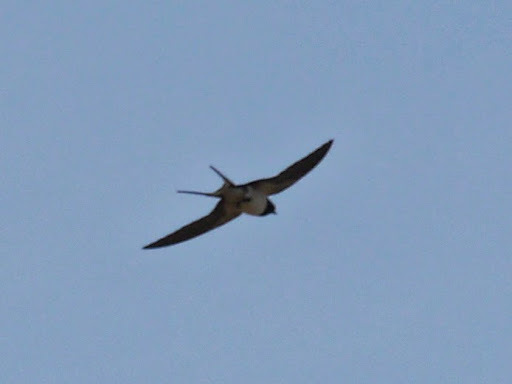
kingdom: Animalia
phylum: Chordata
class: Aves
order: Passeriformes
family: Hirundinidae
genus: Hirundo
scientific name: Hirundo rustica
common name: Barn swallow
